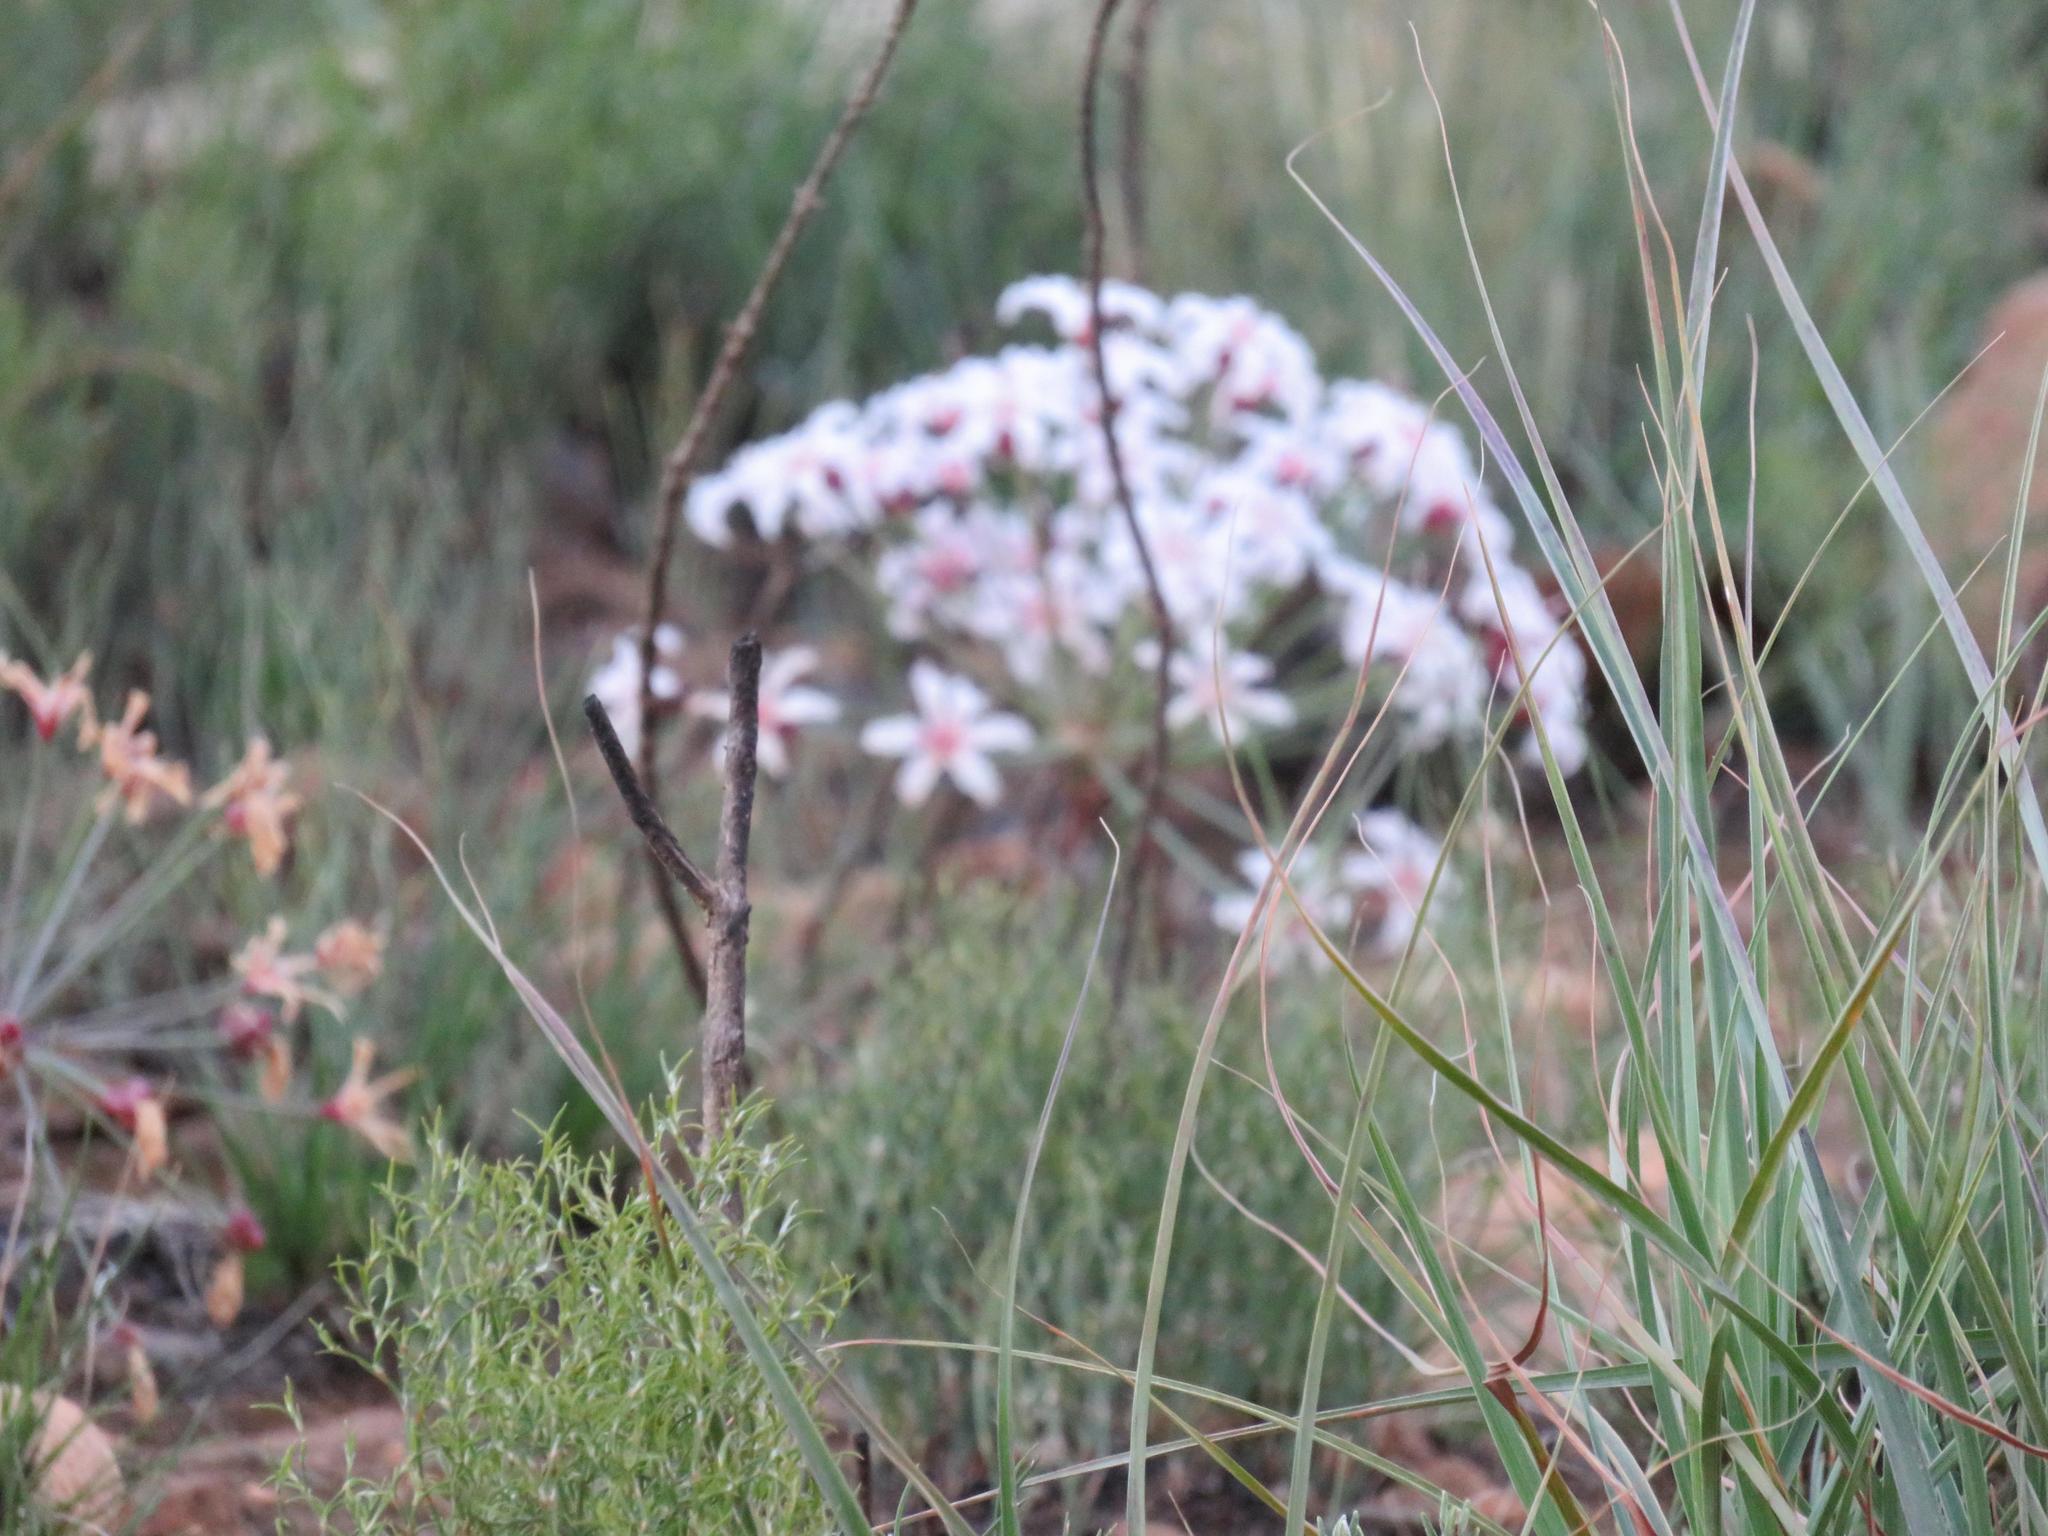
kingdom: Plantae
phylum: Tracheophyta
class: Liliopsida
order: Asparagales
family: Amaryllidaceae
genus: Hessea
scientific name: Hessea monticola
